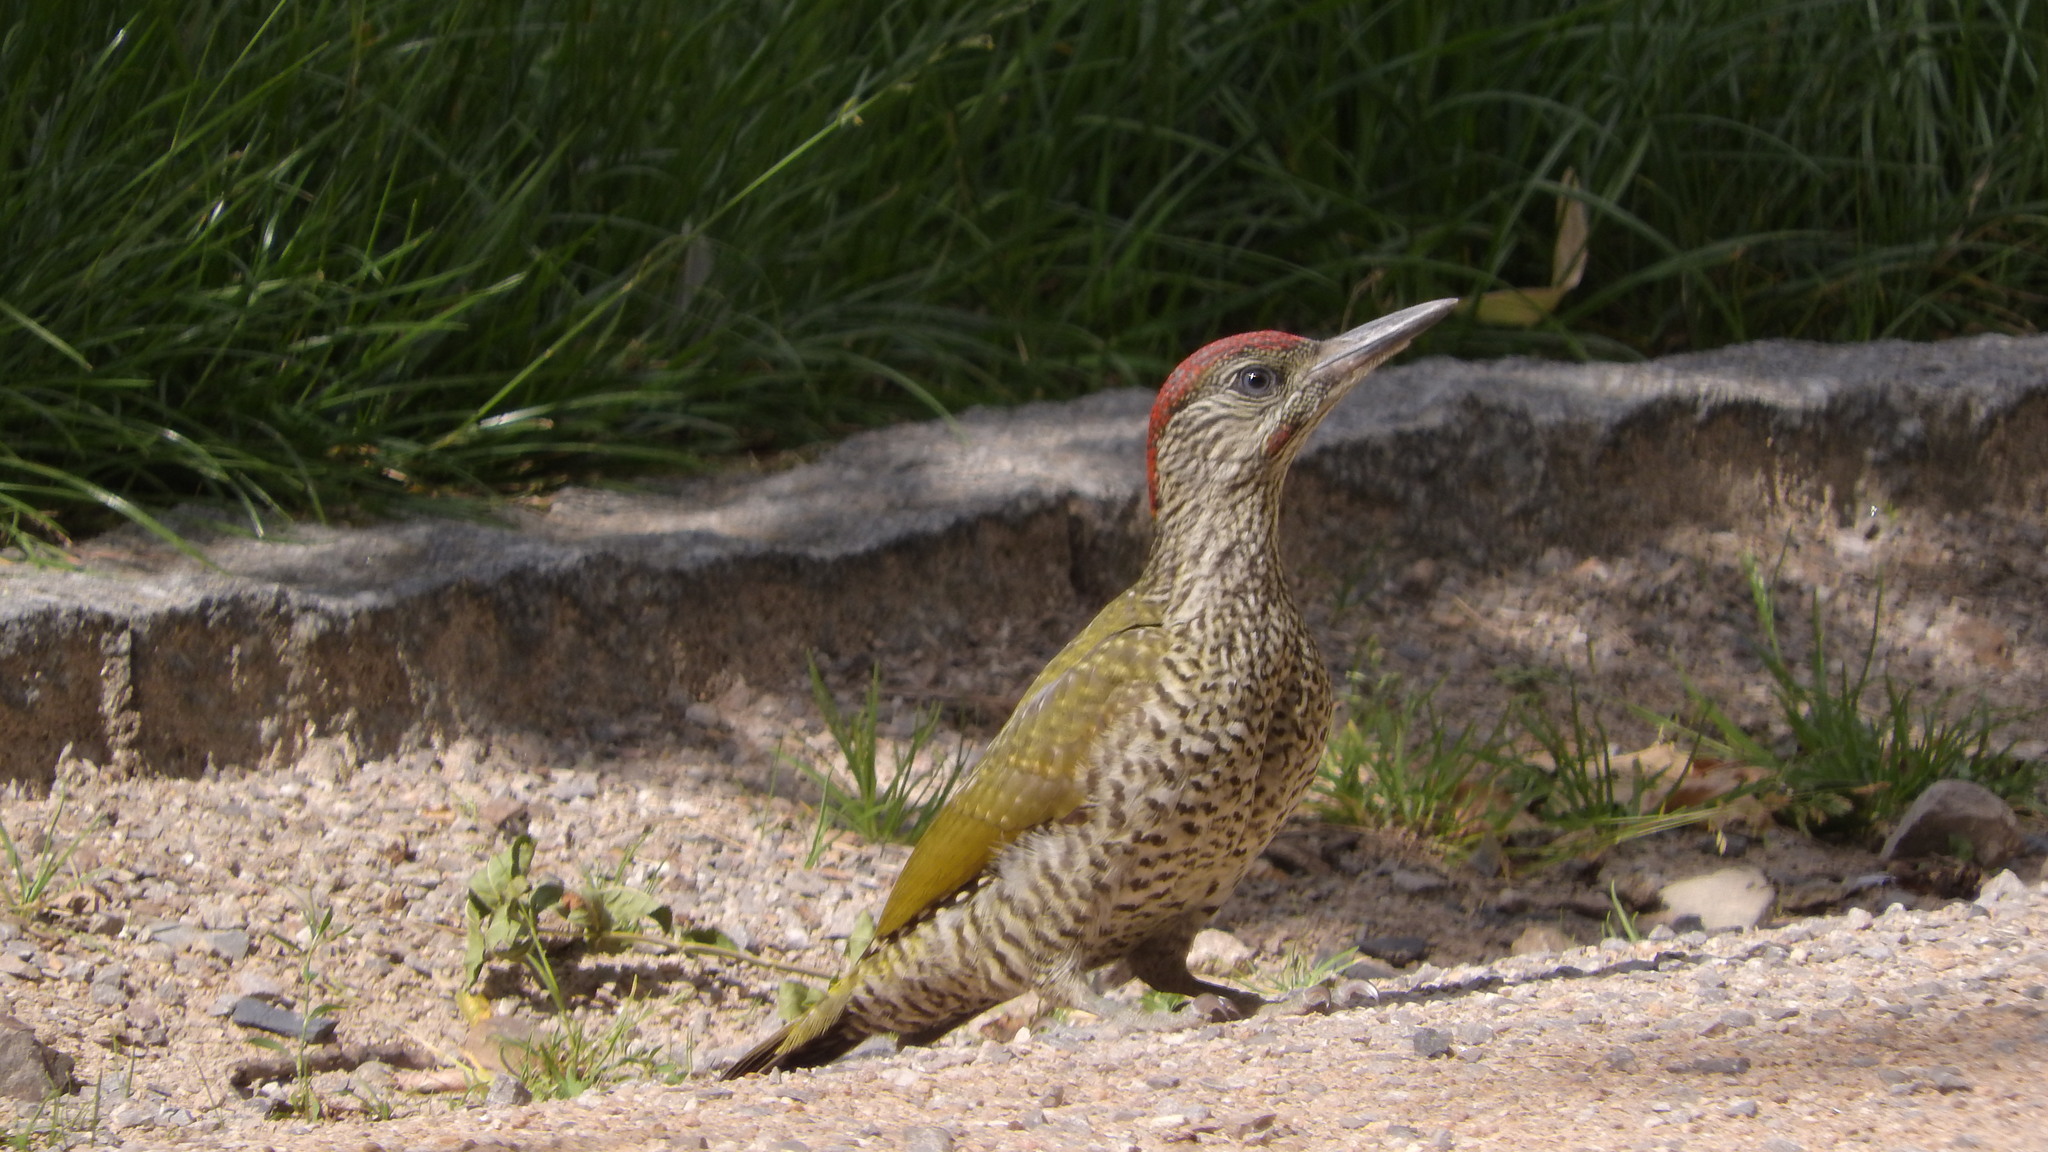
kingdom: Animalia
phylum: Chordata
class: Aves
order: Piciformes
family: Picidae
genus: Picus
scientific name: Picus viridis
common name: European green woodpecker
